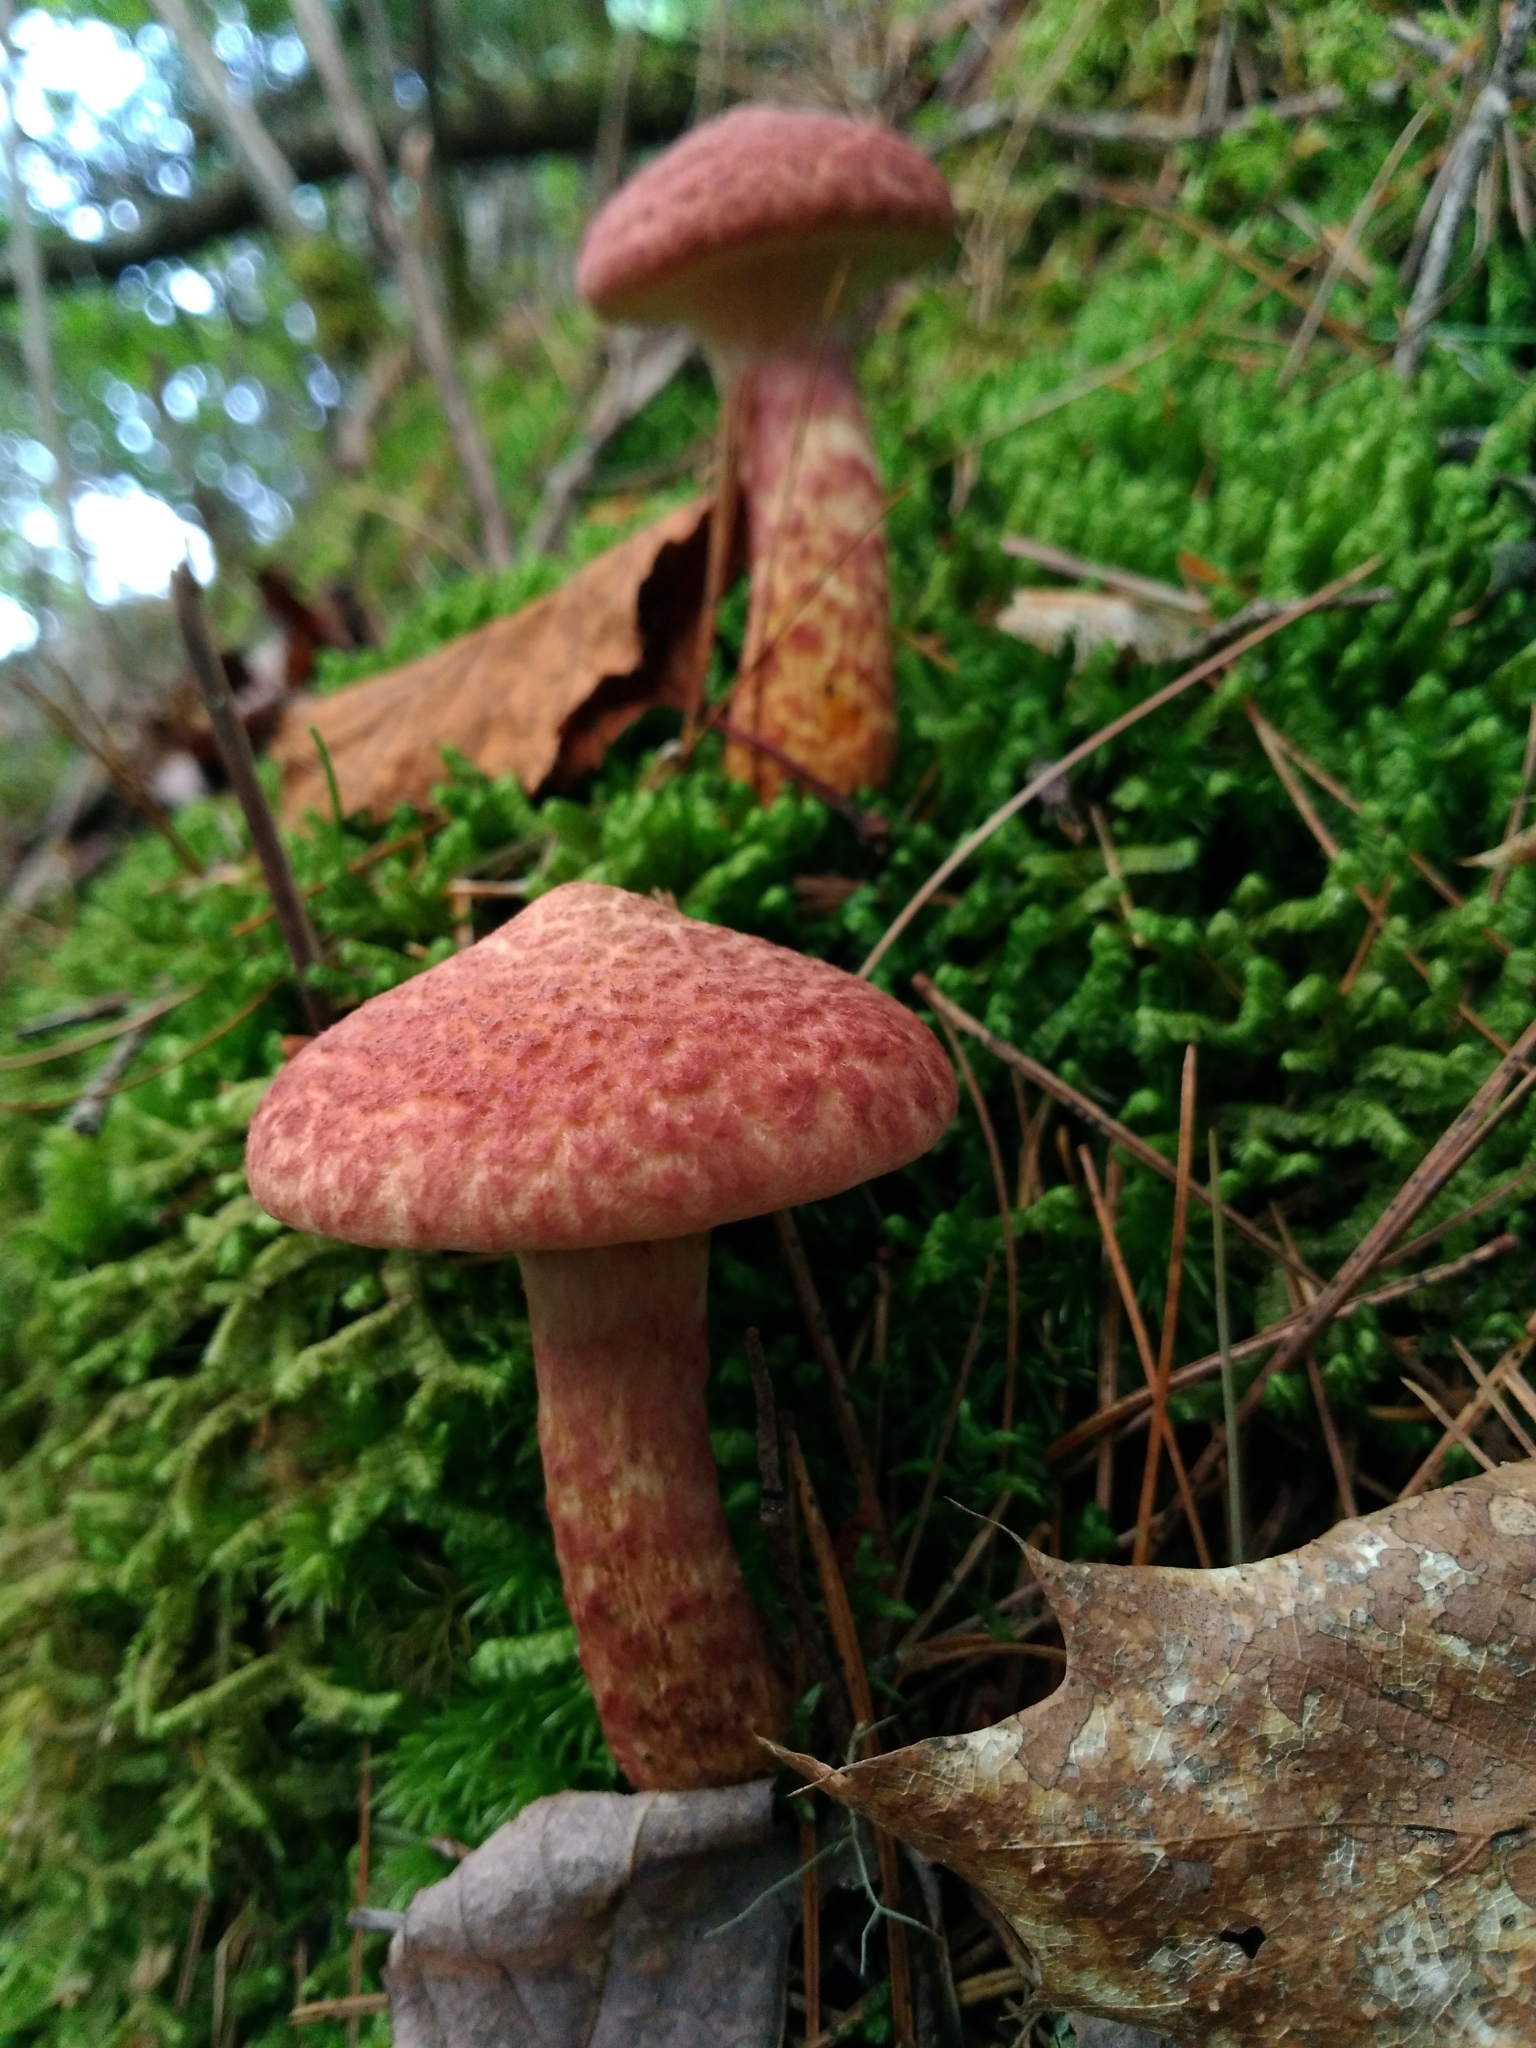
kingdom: Fungi
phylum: Basidiomycota
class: Agaricomycetes
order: Boletales
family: Suillaceae
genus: Suillus
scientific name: Suillus spraguei
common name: Painted suillus
